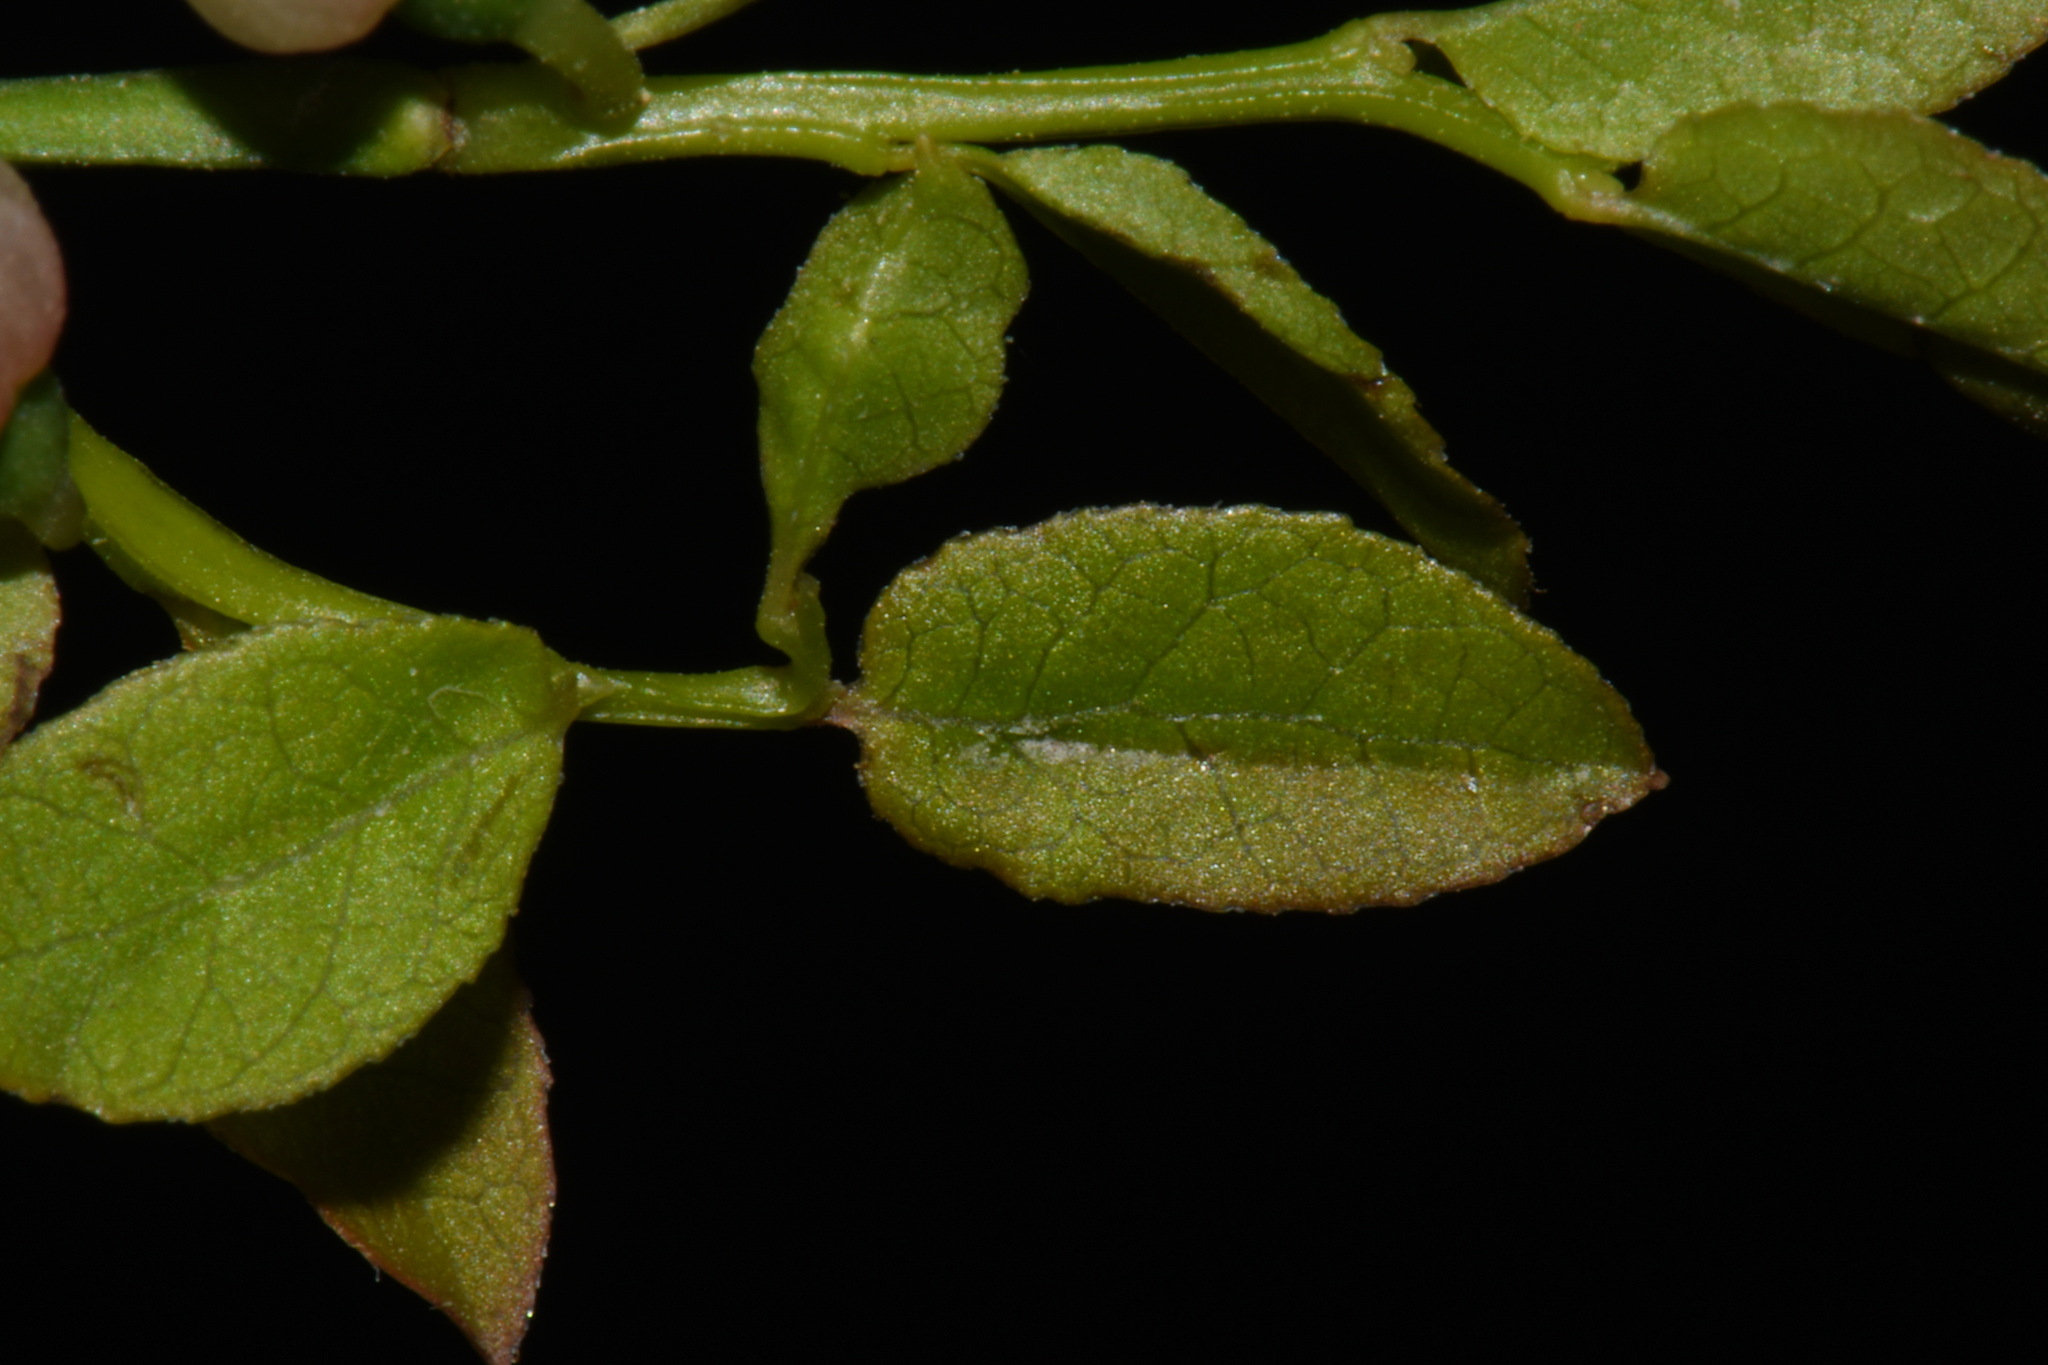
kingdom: Plantae
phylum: Tracheophyta
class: Magnoliopsida
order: Ericales
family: Ericaceae
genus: Vaccinium
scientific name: Vaccinium scoparium
